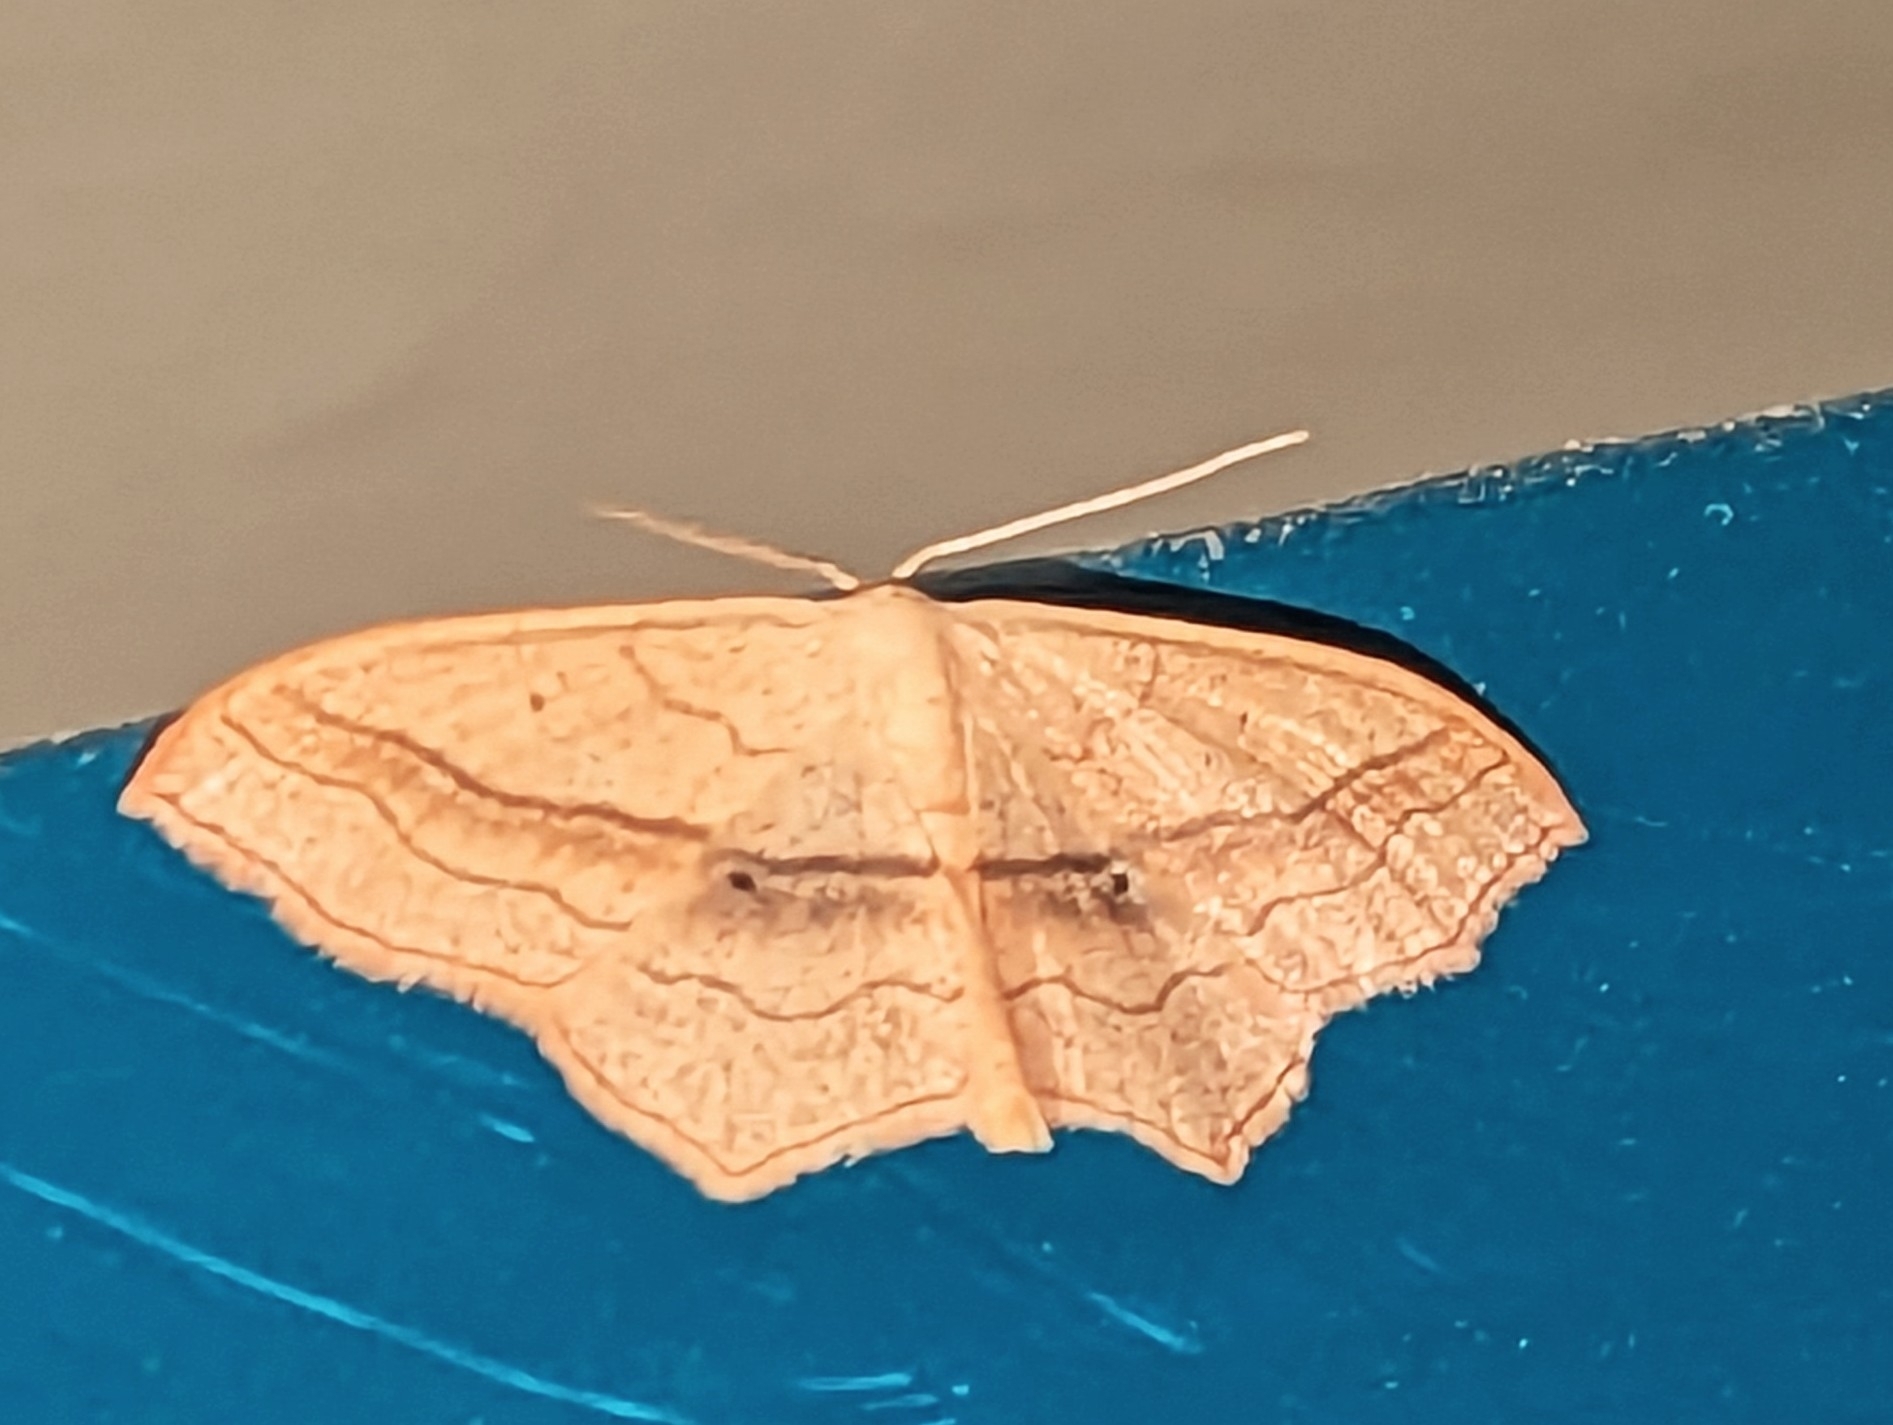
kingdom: Animalia
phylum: Arthropoda
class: Insecta
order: Lepidoptera
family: Geometridae
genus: Scopula
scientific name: Scopula imitaria
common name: Small blood-vein
